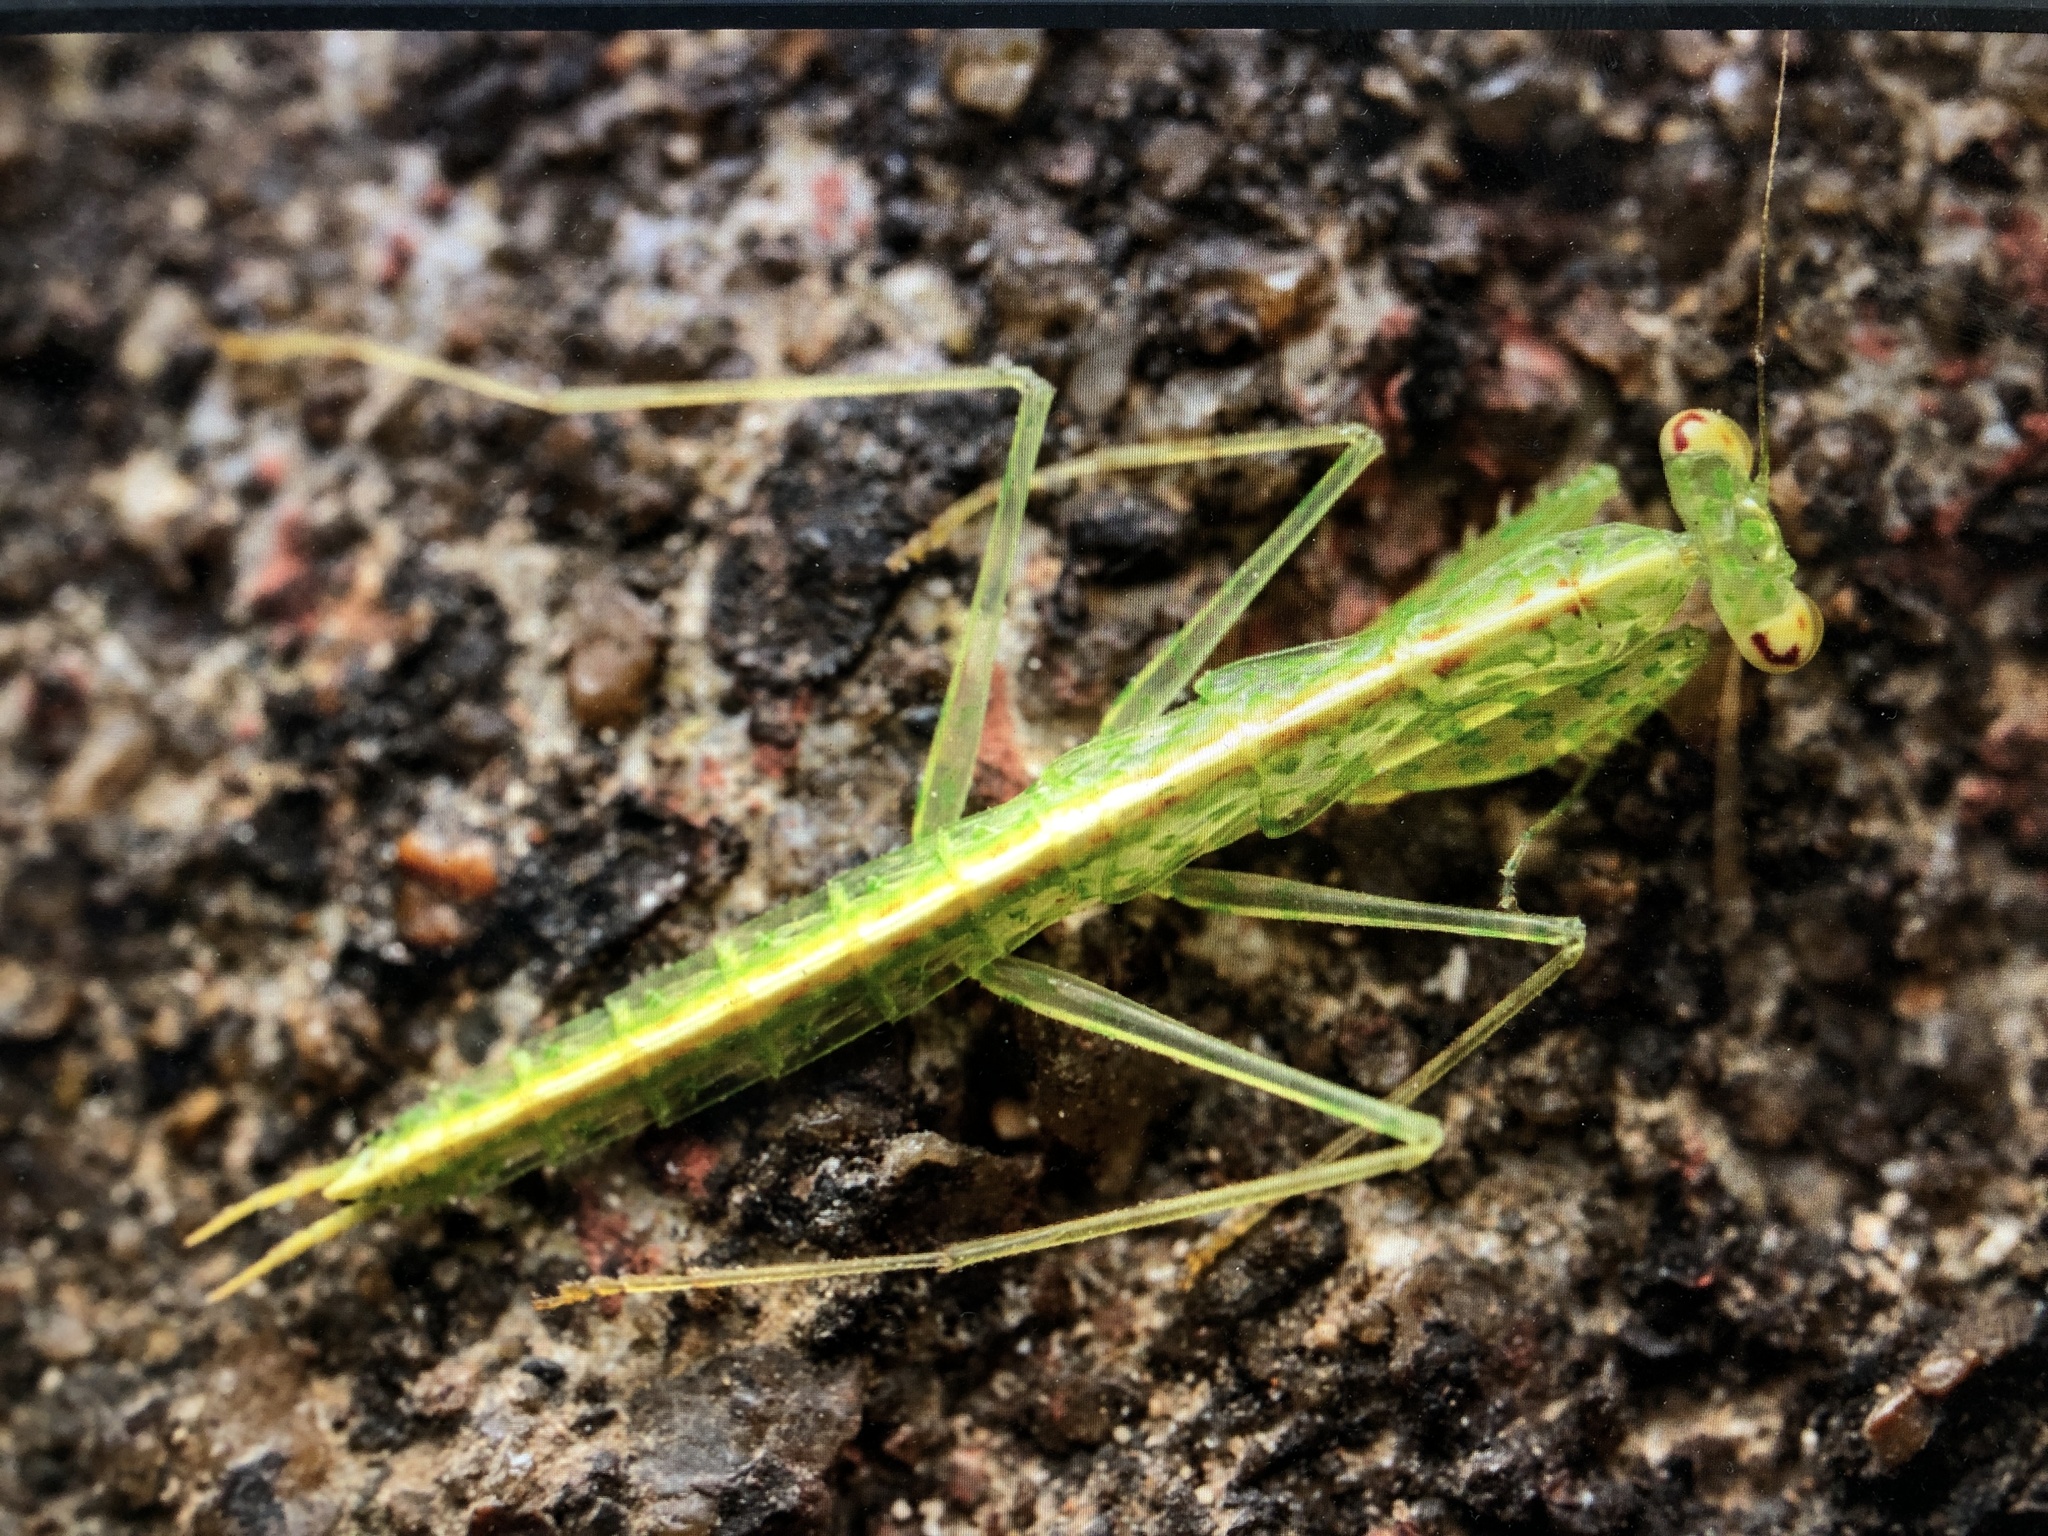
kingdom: Animalia
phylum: Arthropoda
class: Insecta
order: Mantodea
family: Nanomantidae
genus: Tropidomantis
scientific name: Tropidomantis gressitti
